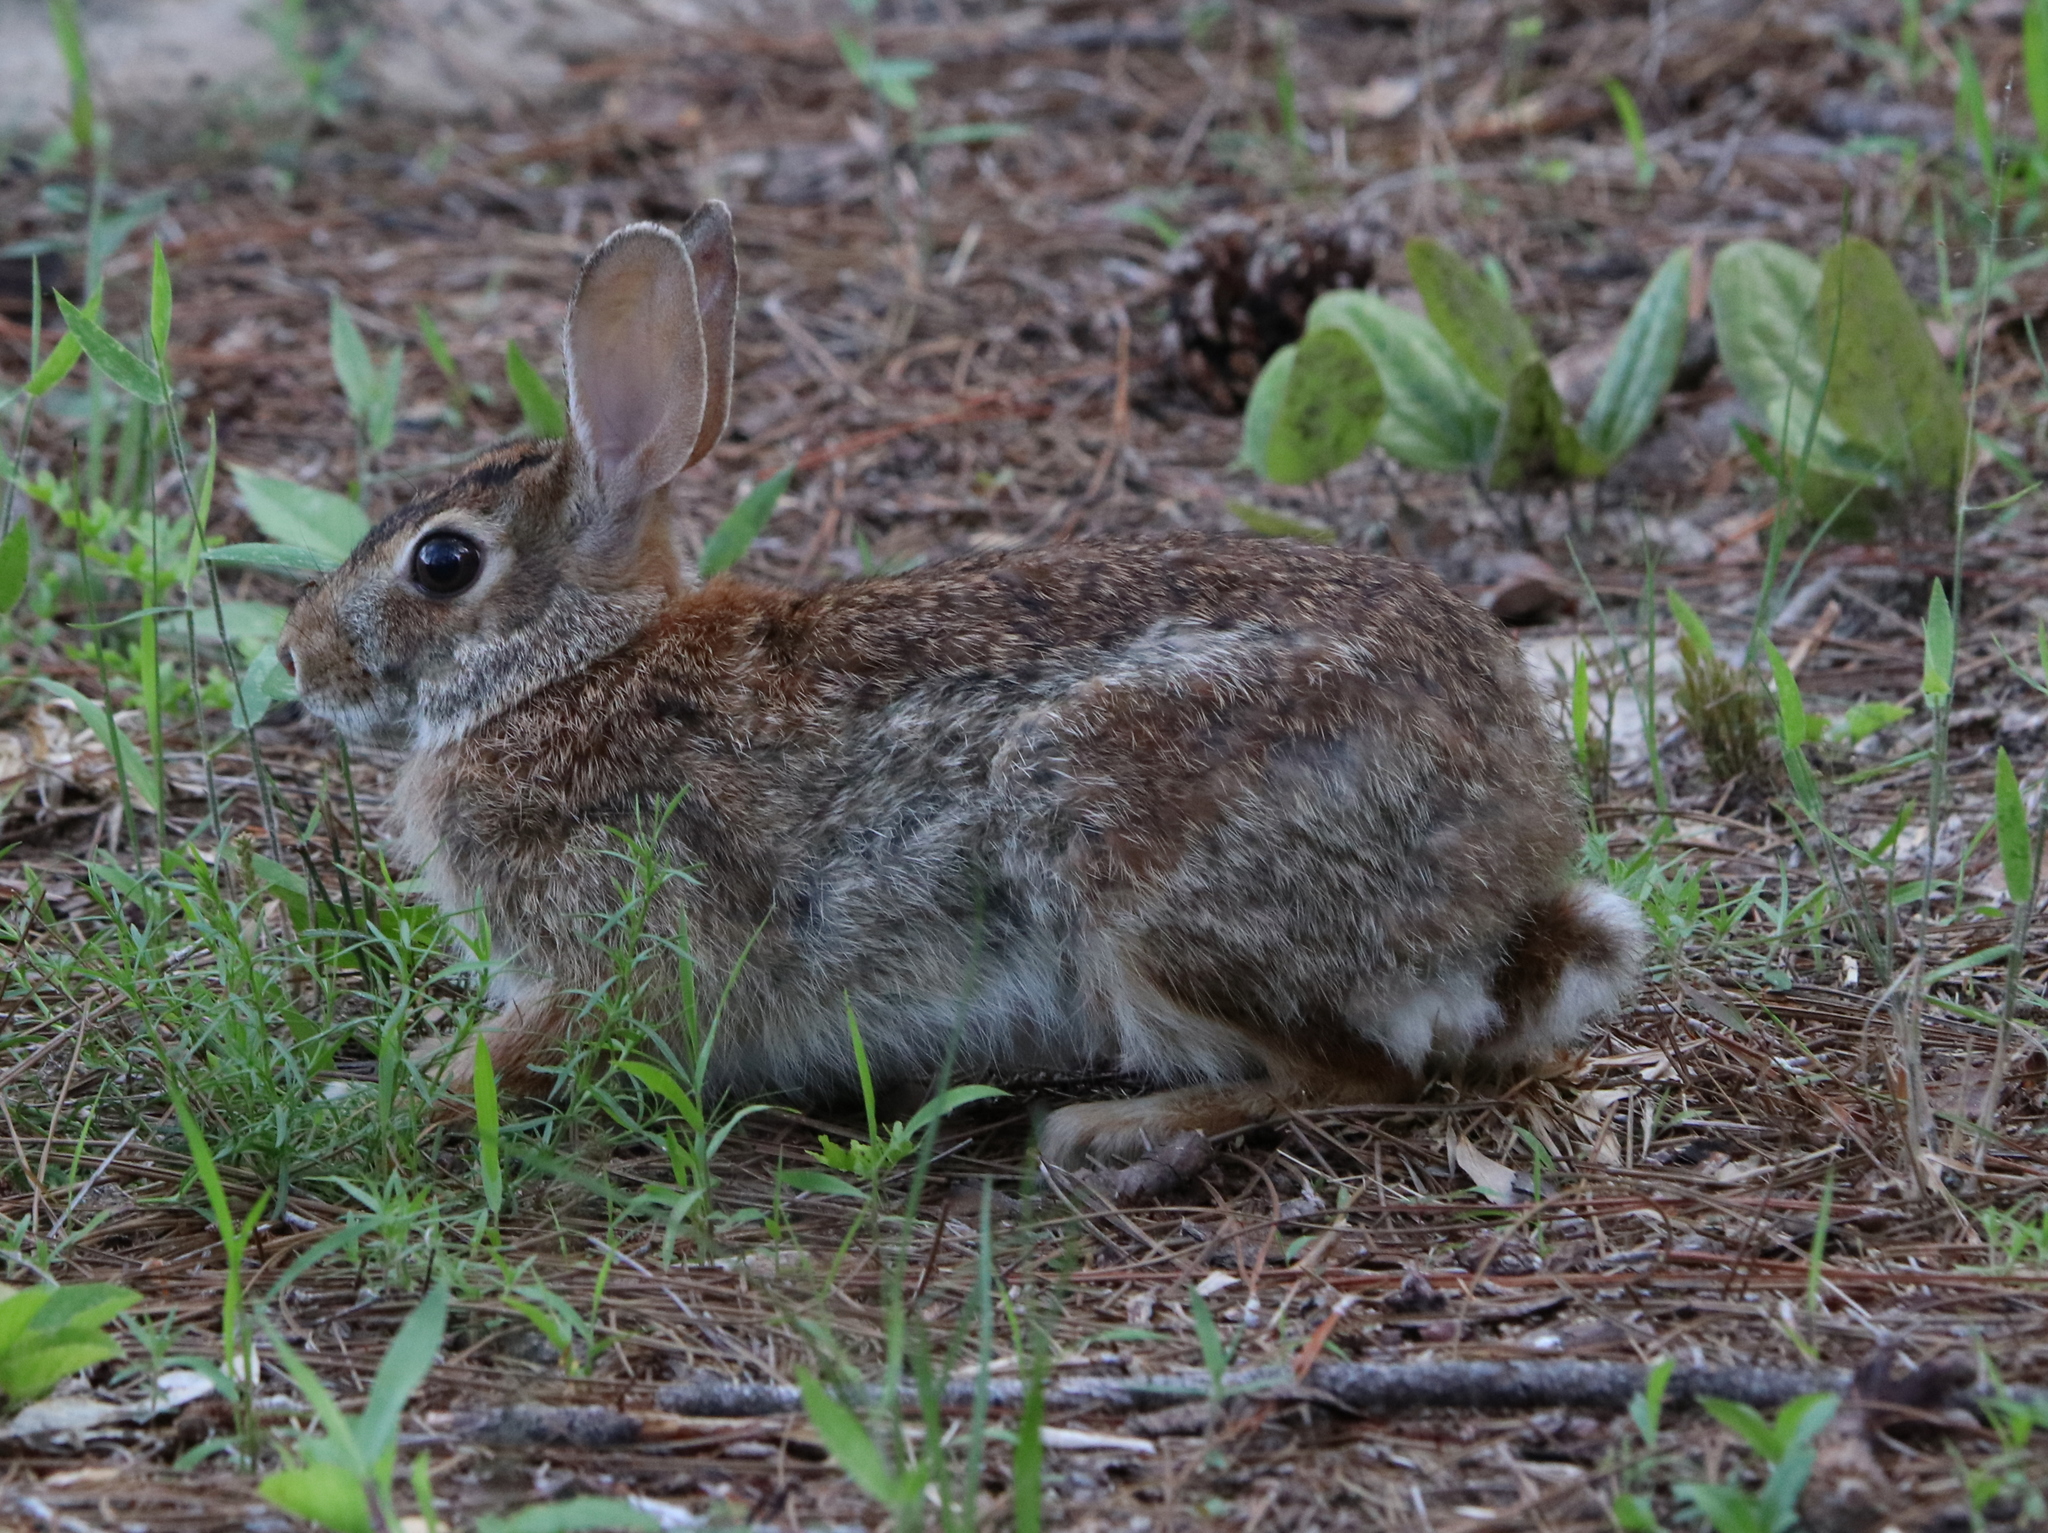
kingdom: Animalia
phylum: Chordata
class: Mammalia
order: Lagomorpha
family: Leporidae
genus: Sylvilagus
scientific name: Sylvilagus floridanus
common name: Eastern cottontail
